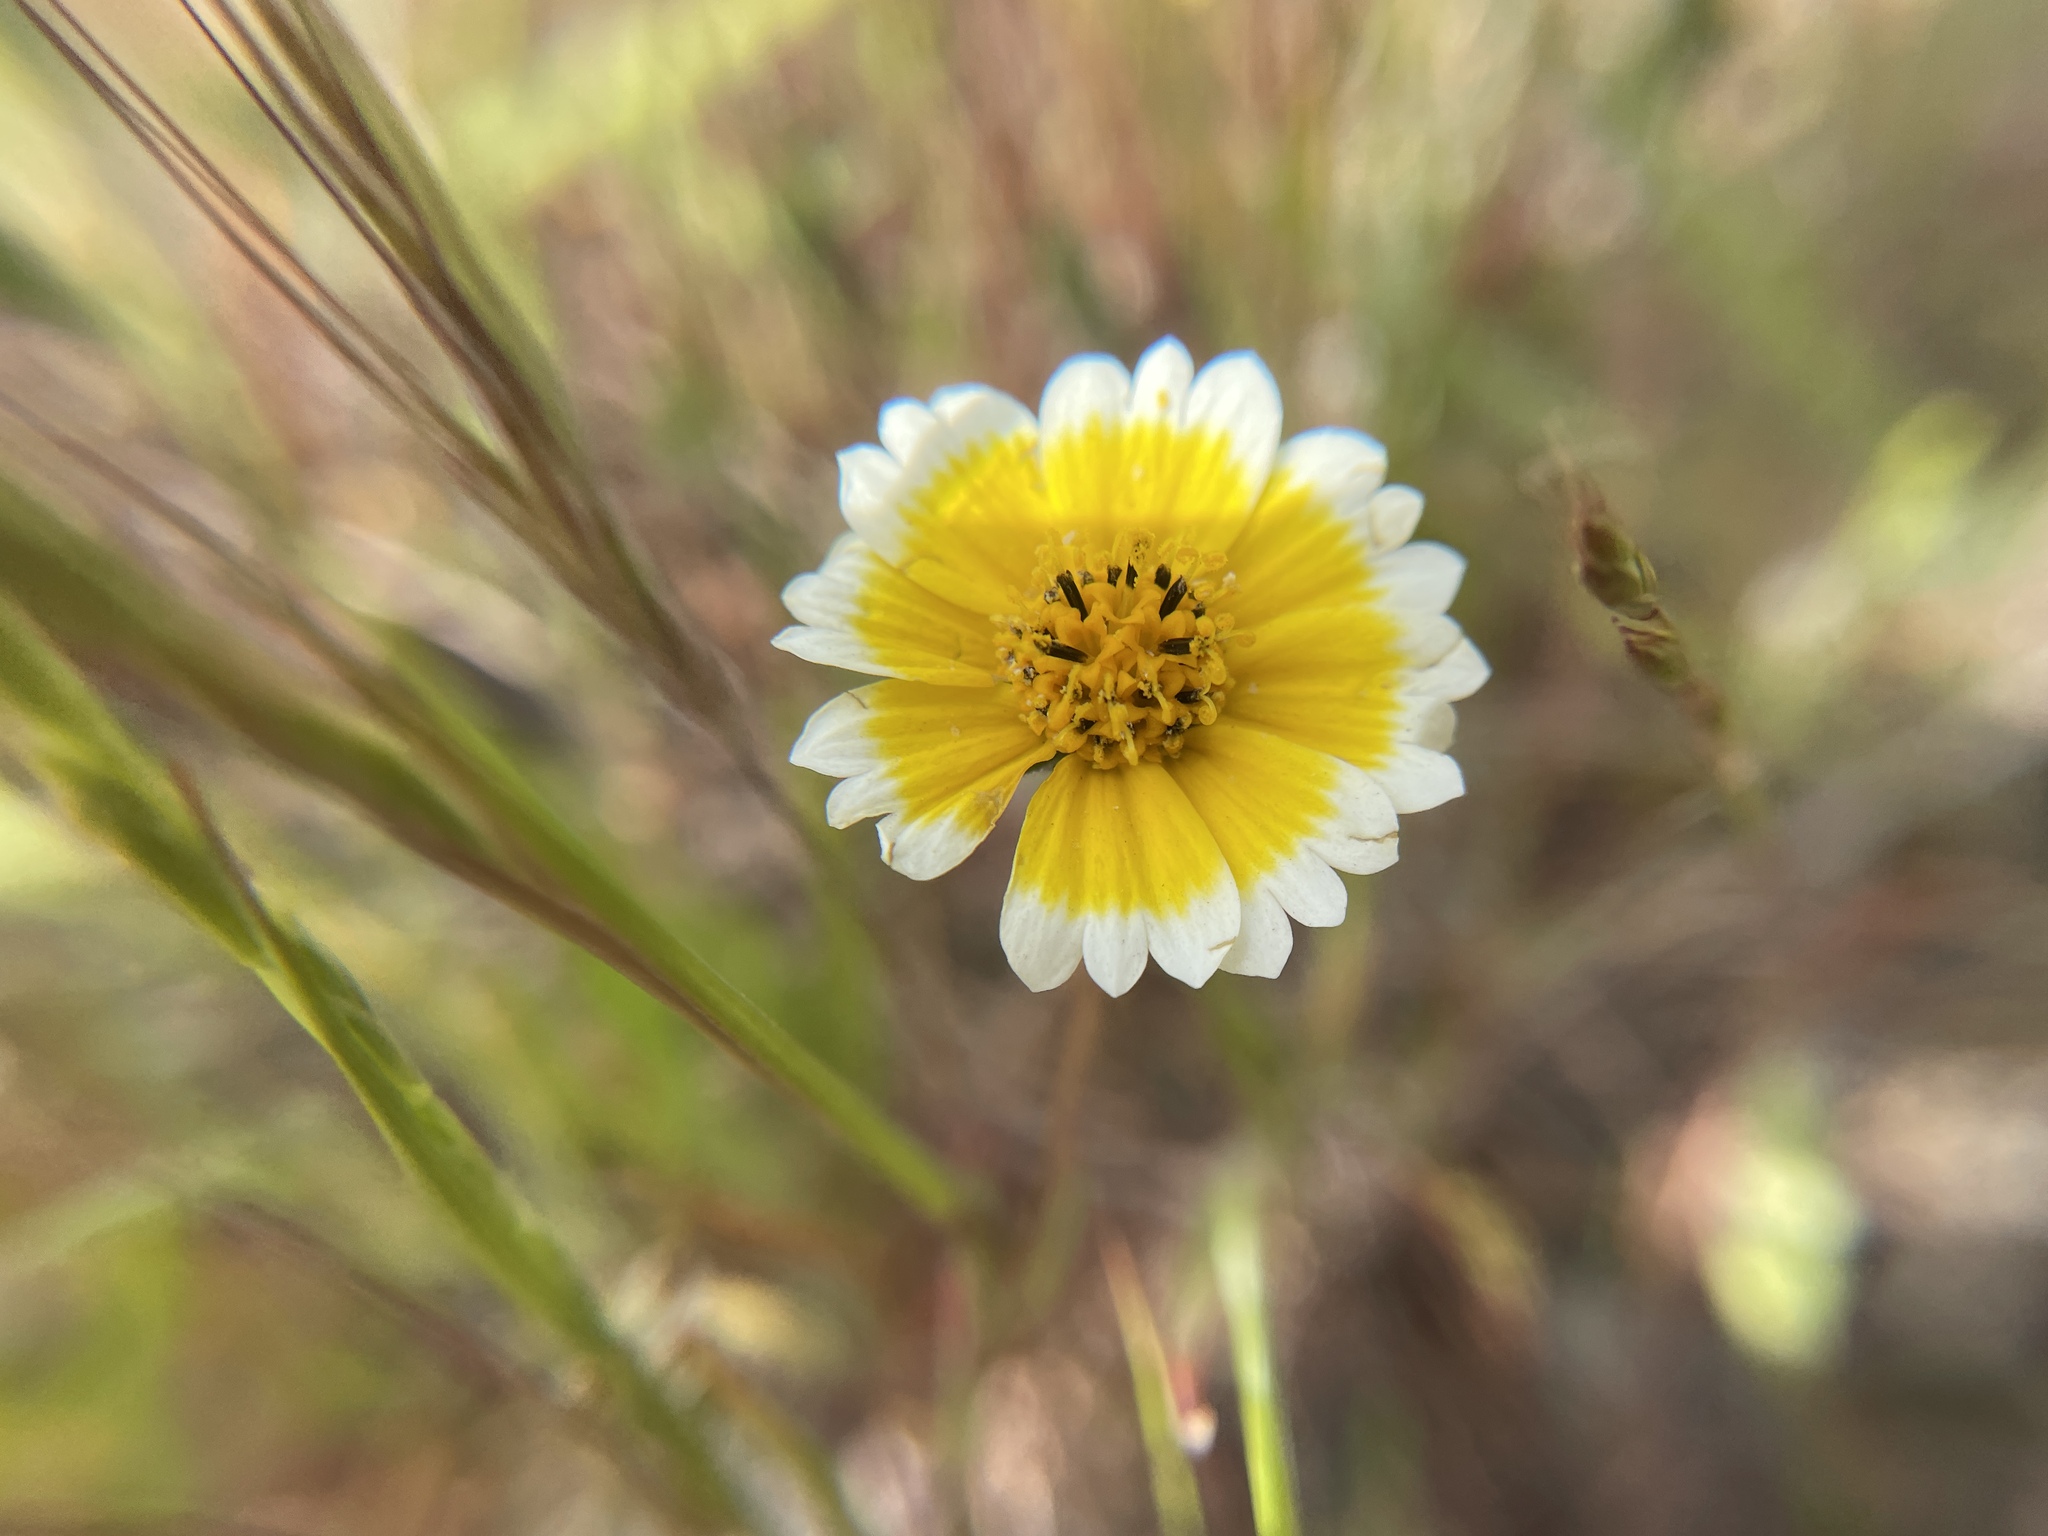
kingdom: Plantae
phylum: Tracheophyta
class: Magnoliopsida
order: Asterales
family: Asteraceae
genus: Layia
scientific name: Layia platyglossa
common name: Tidy-tips
